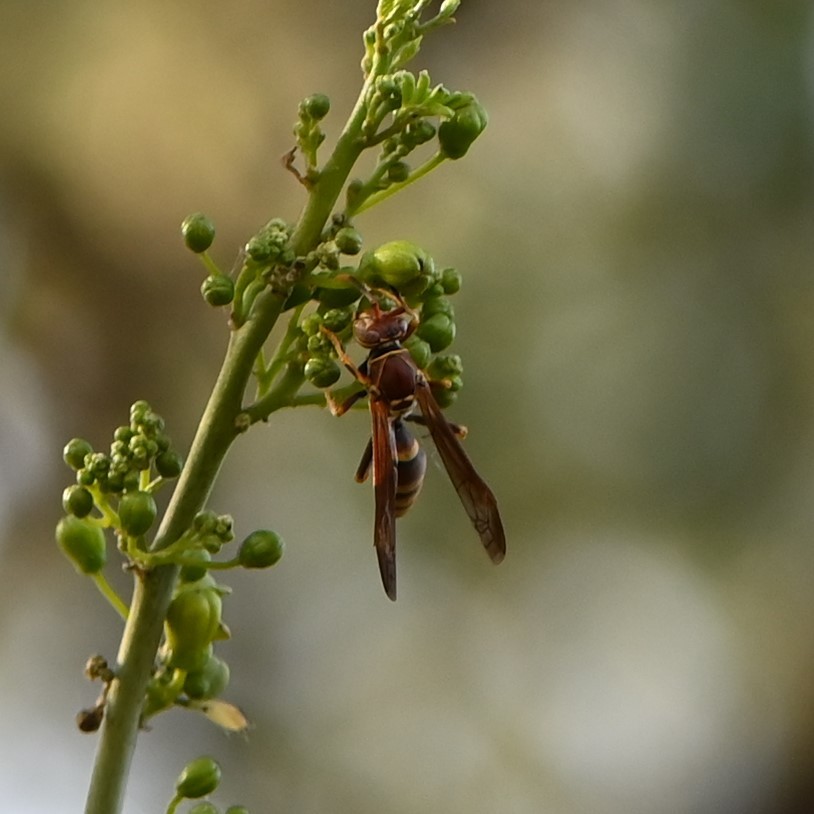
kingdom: Animalia
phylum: Arthropoda
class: Insecta
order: Hymenoptera
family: Eumenidae
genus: Polistes
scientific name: Polistes exclamans
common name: Paper wasp
